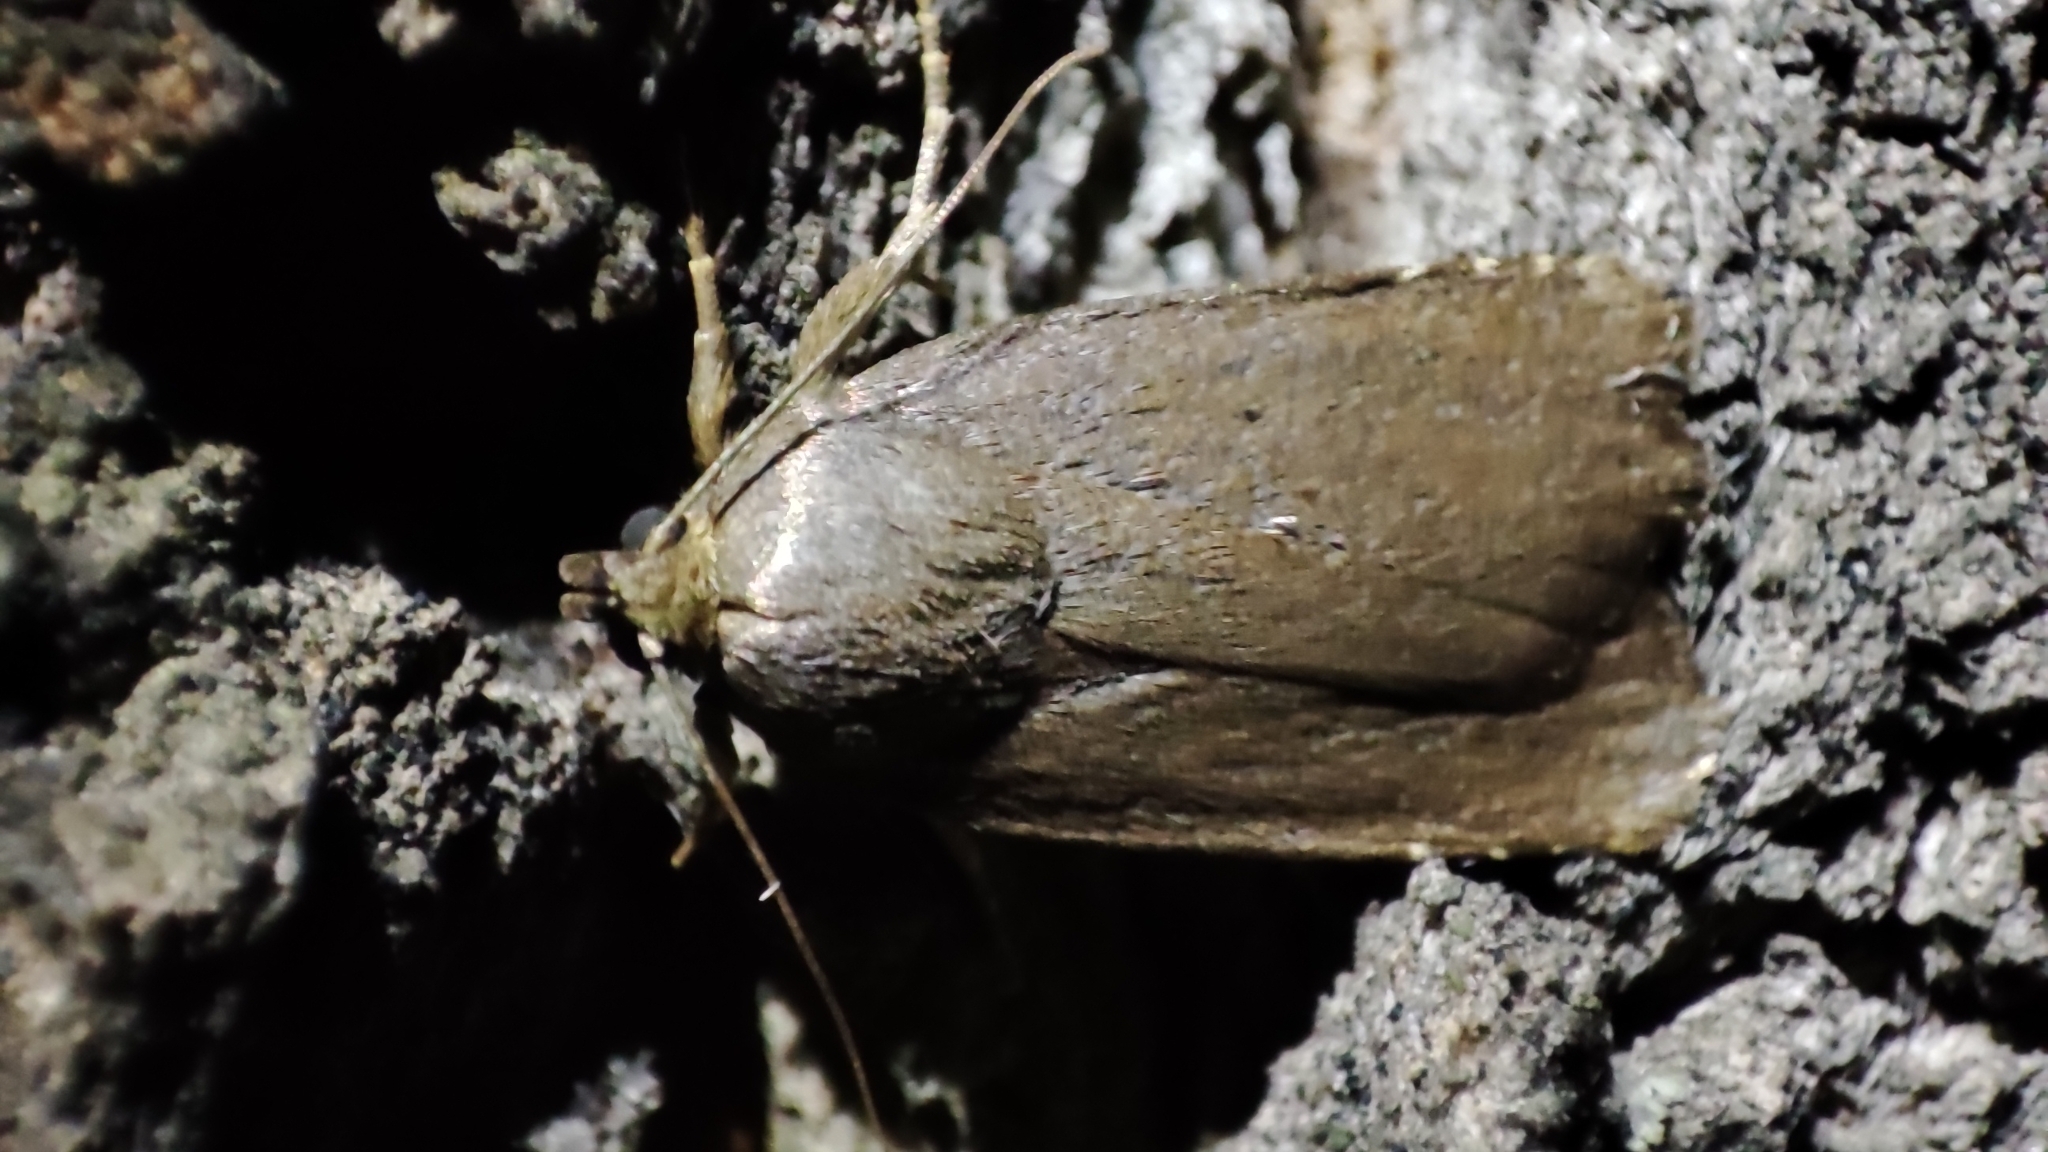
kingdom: Animalia
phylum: Arthropoda
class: Insecta
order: Lepidoptera
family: Noctuidae
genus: Amphipyra
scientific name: Amphipyra tetra
